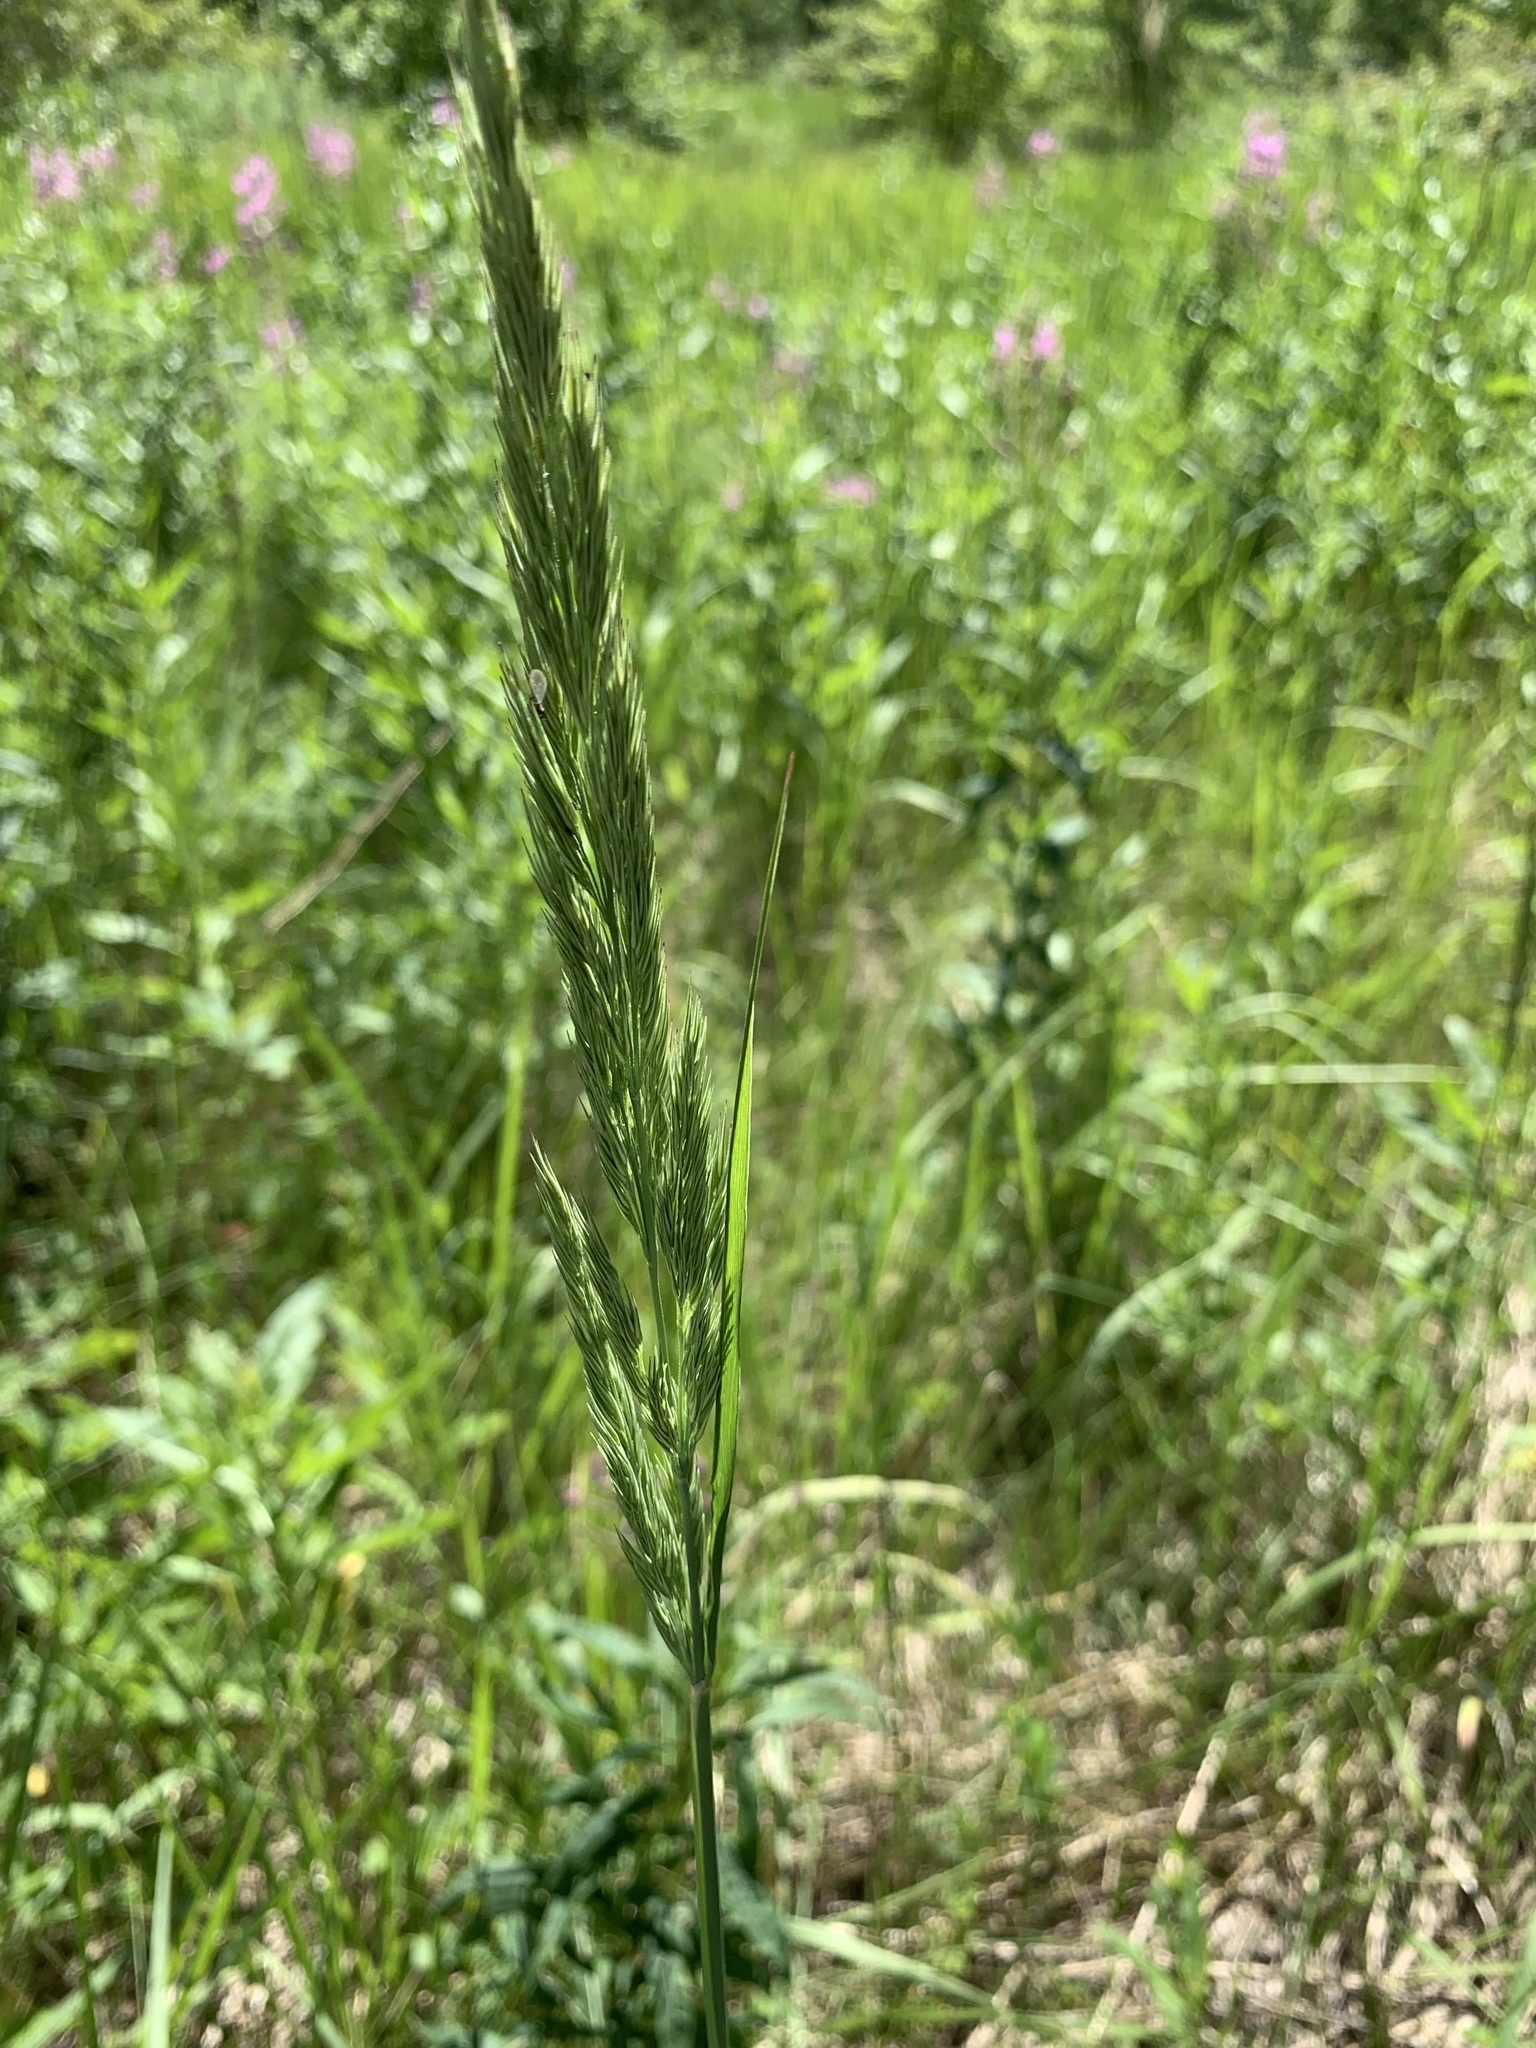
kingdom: Plantae
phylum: Tracheophyta
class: Liliopsida
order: Poales
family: Poaceae
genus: Calamagrostis
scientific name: Calamagrostis epigejos
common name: Wood small-reed
